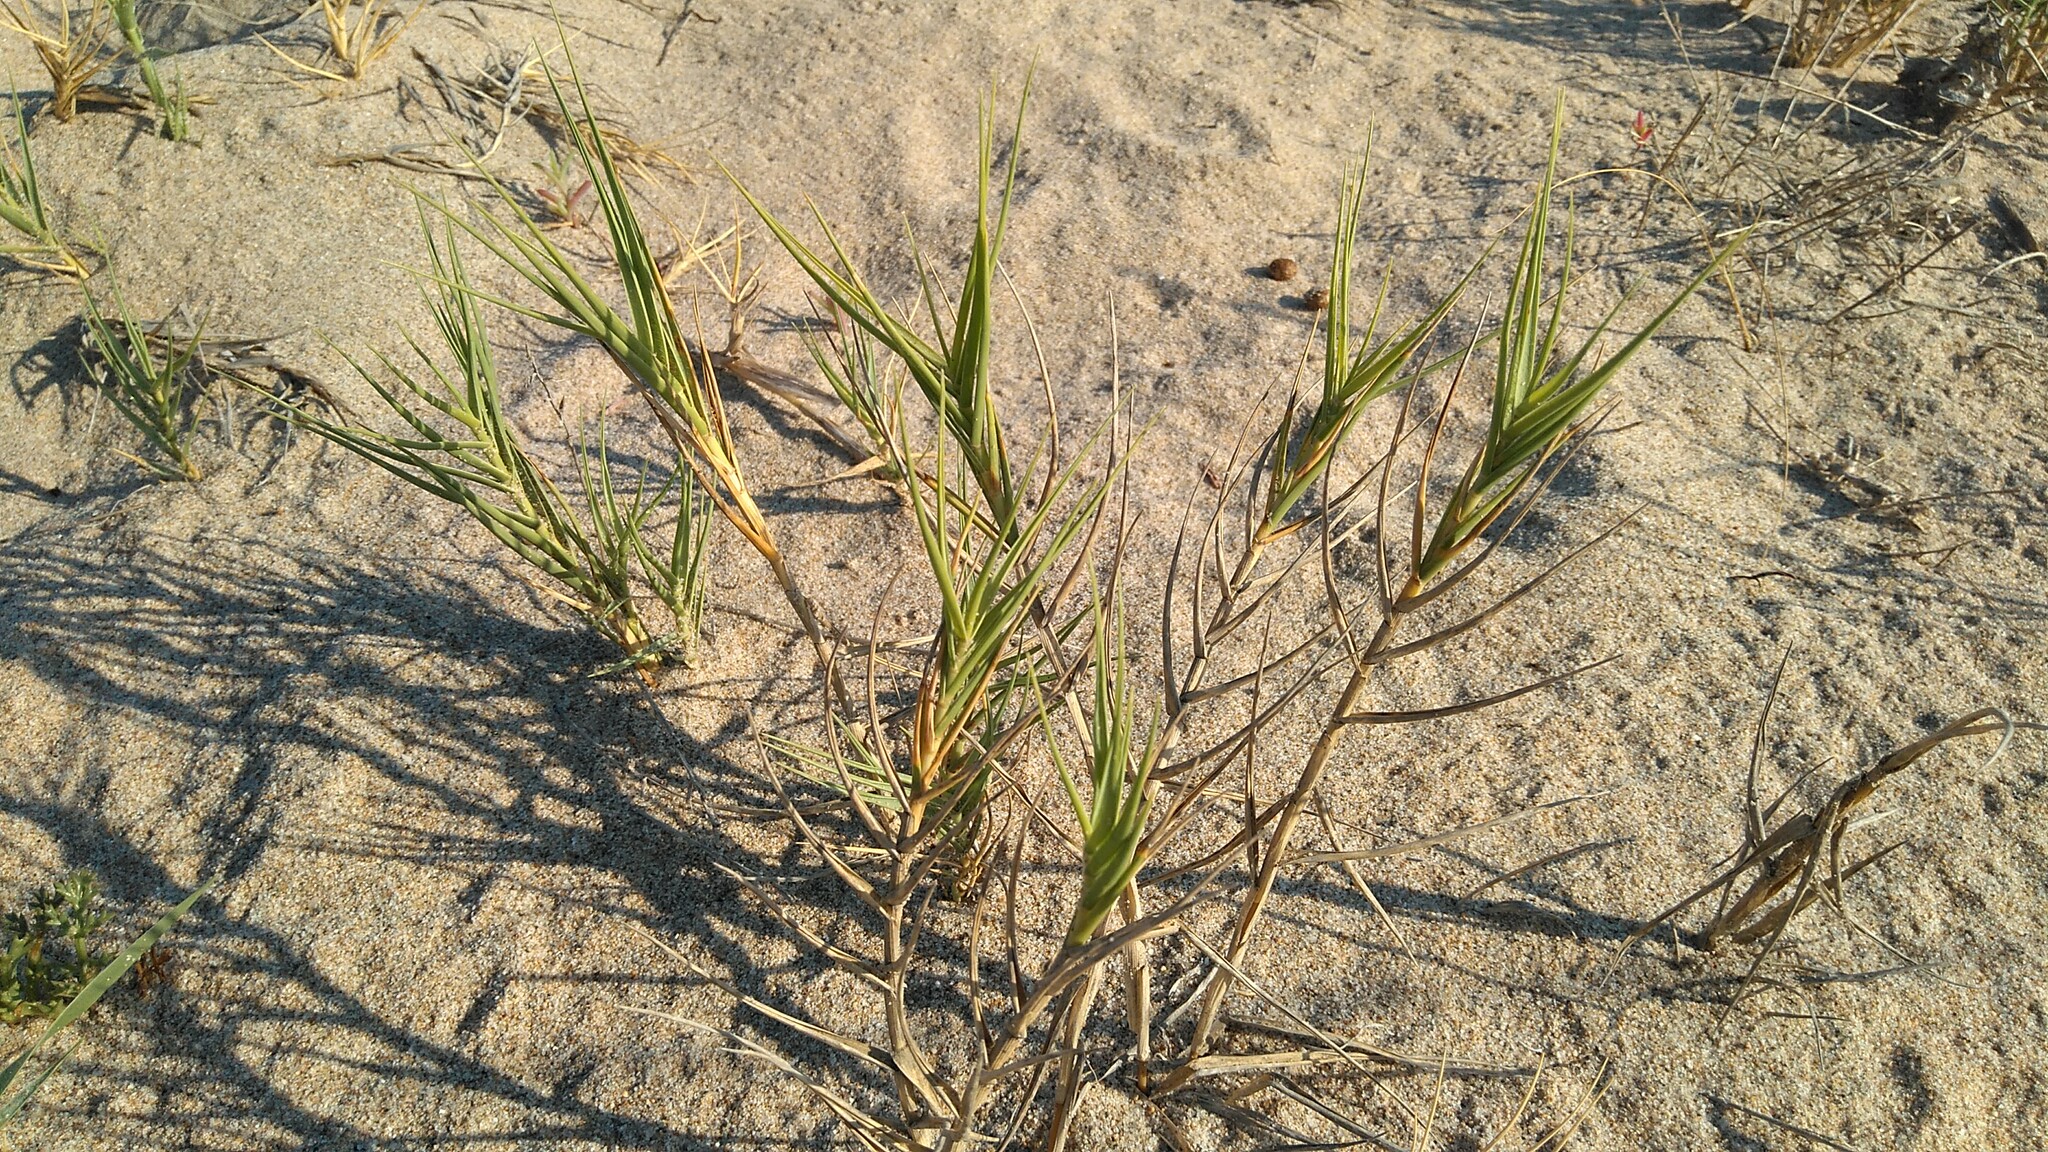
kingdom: Plantae
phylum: Tracheophyta
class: Liliopsida
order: Poales
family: Poaceae
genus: Sporobolus
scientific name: Sporobolus pungens
